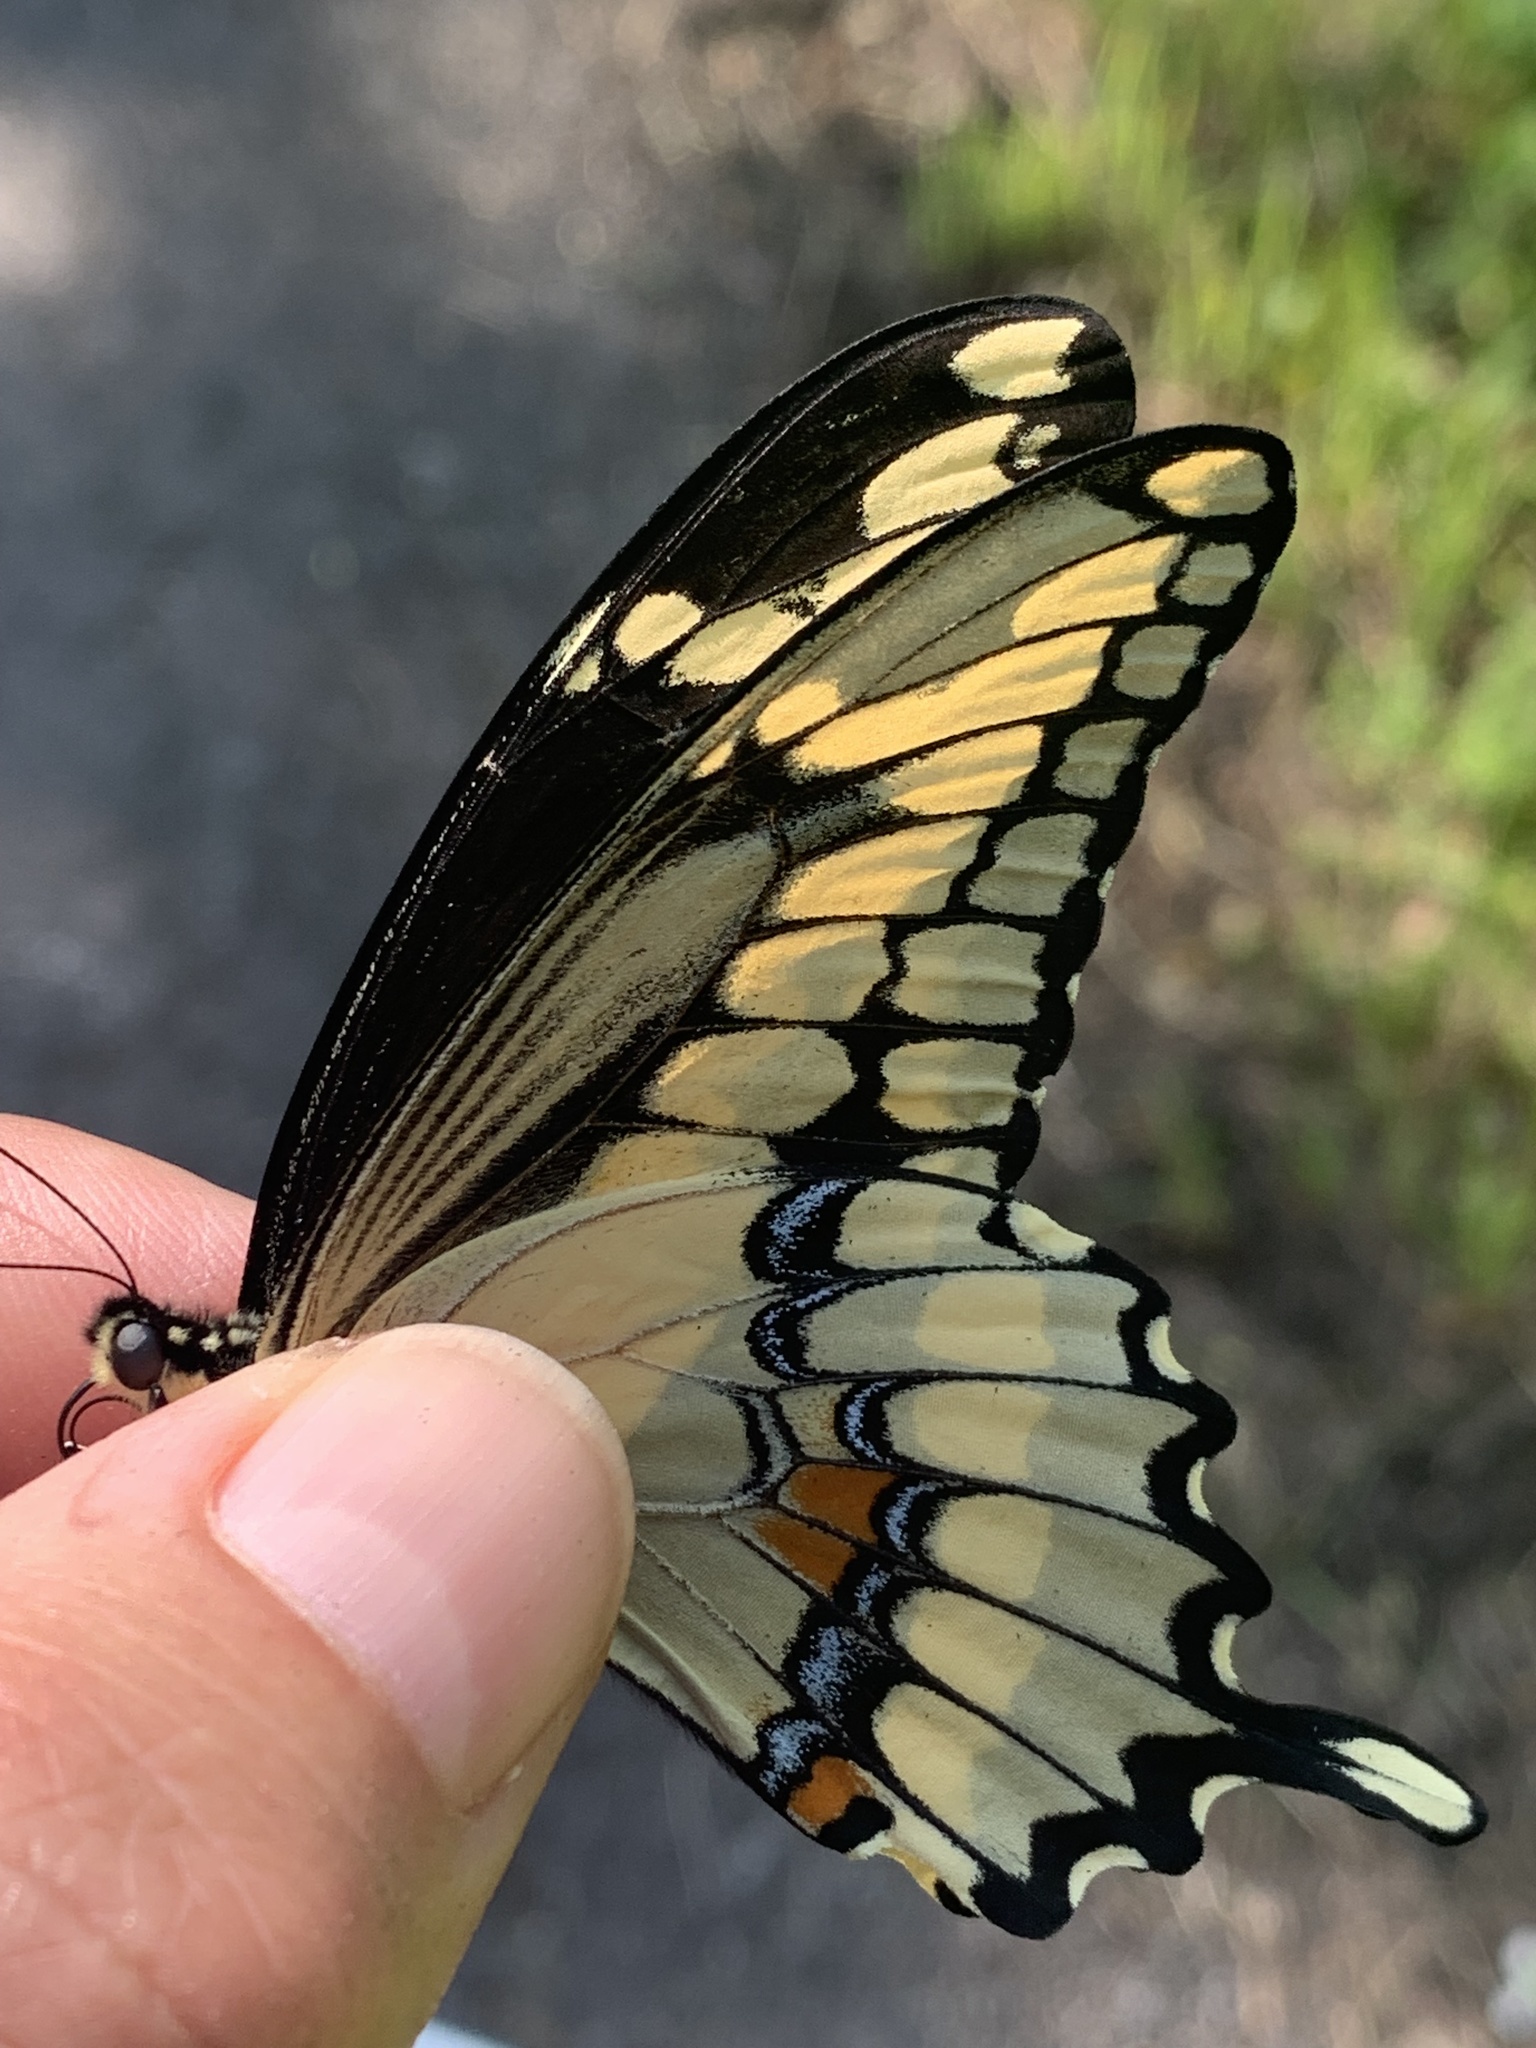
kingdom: Animalia
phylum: Arthropoda
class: Insecta
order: Lepidoptera
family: Papilionidae
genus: Papilio
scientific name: Papilio cresphontes
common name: Giant swallowtail
